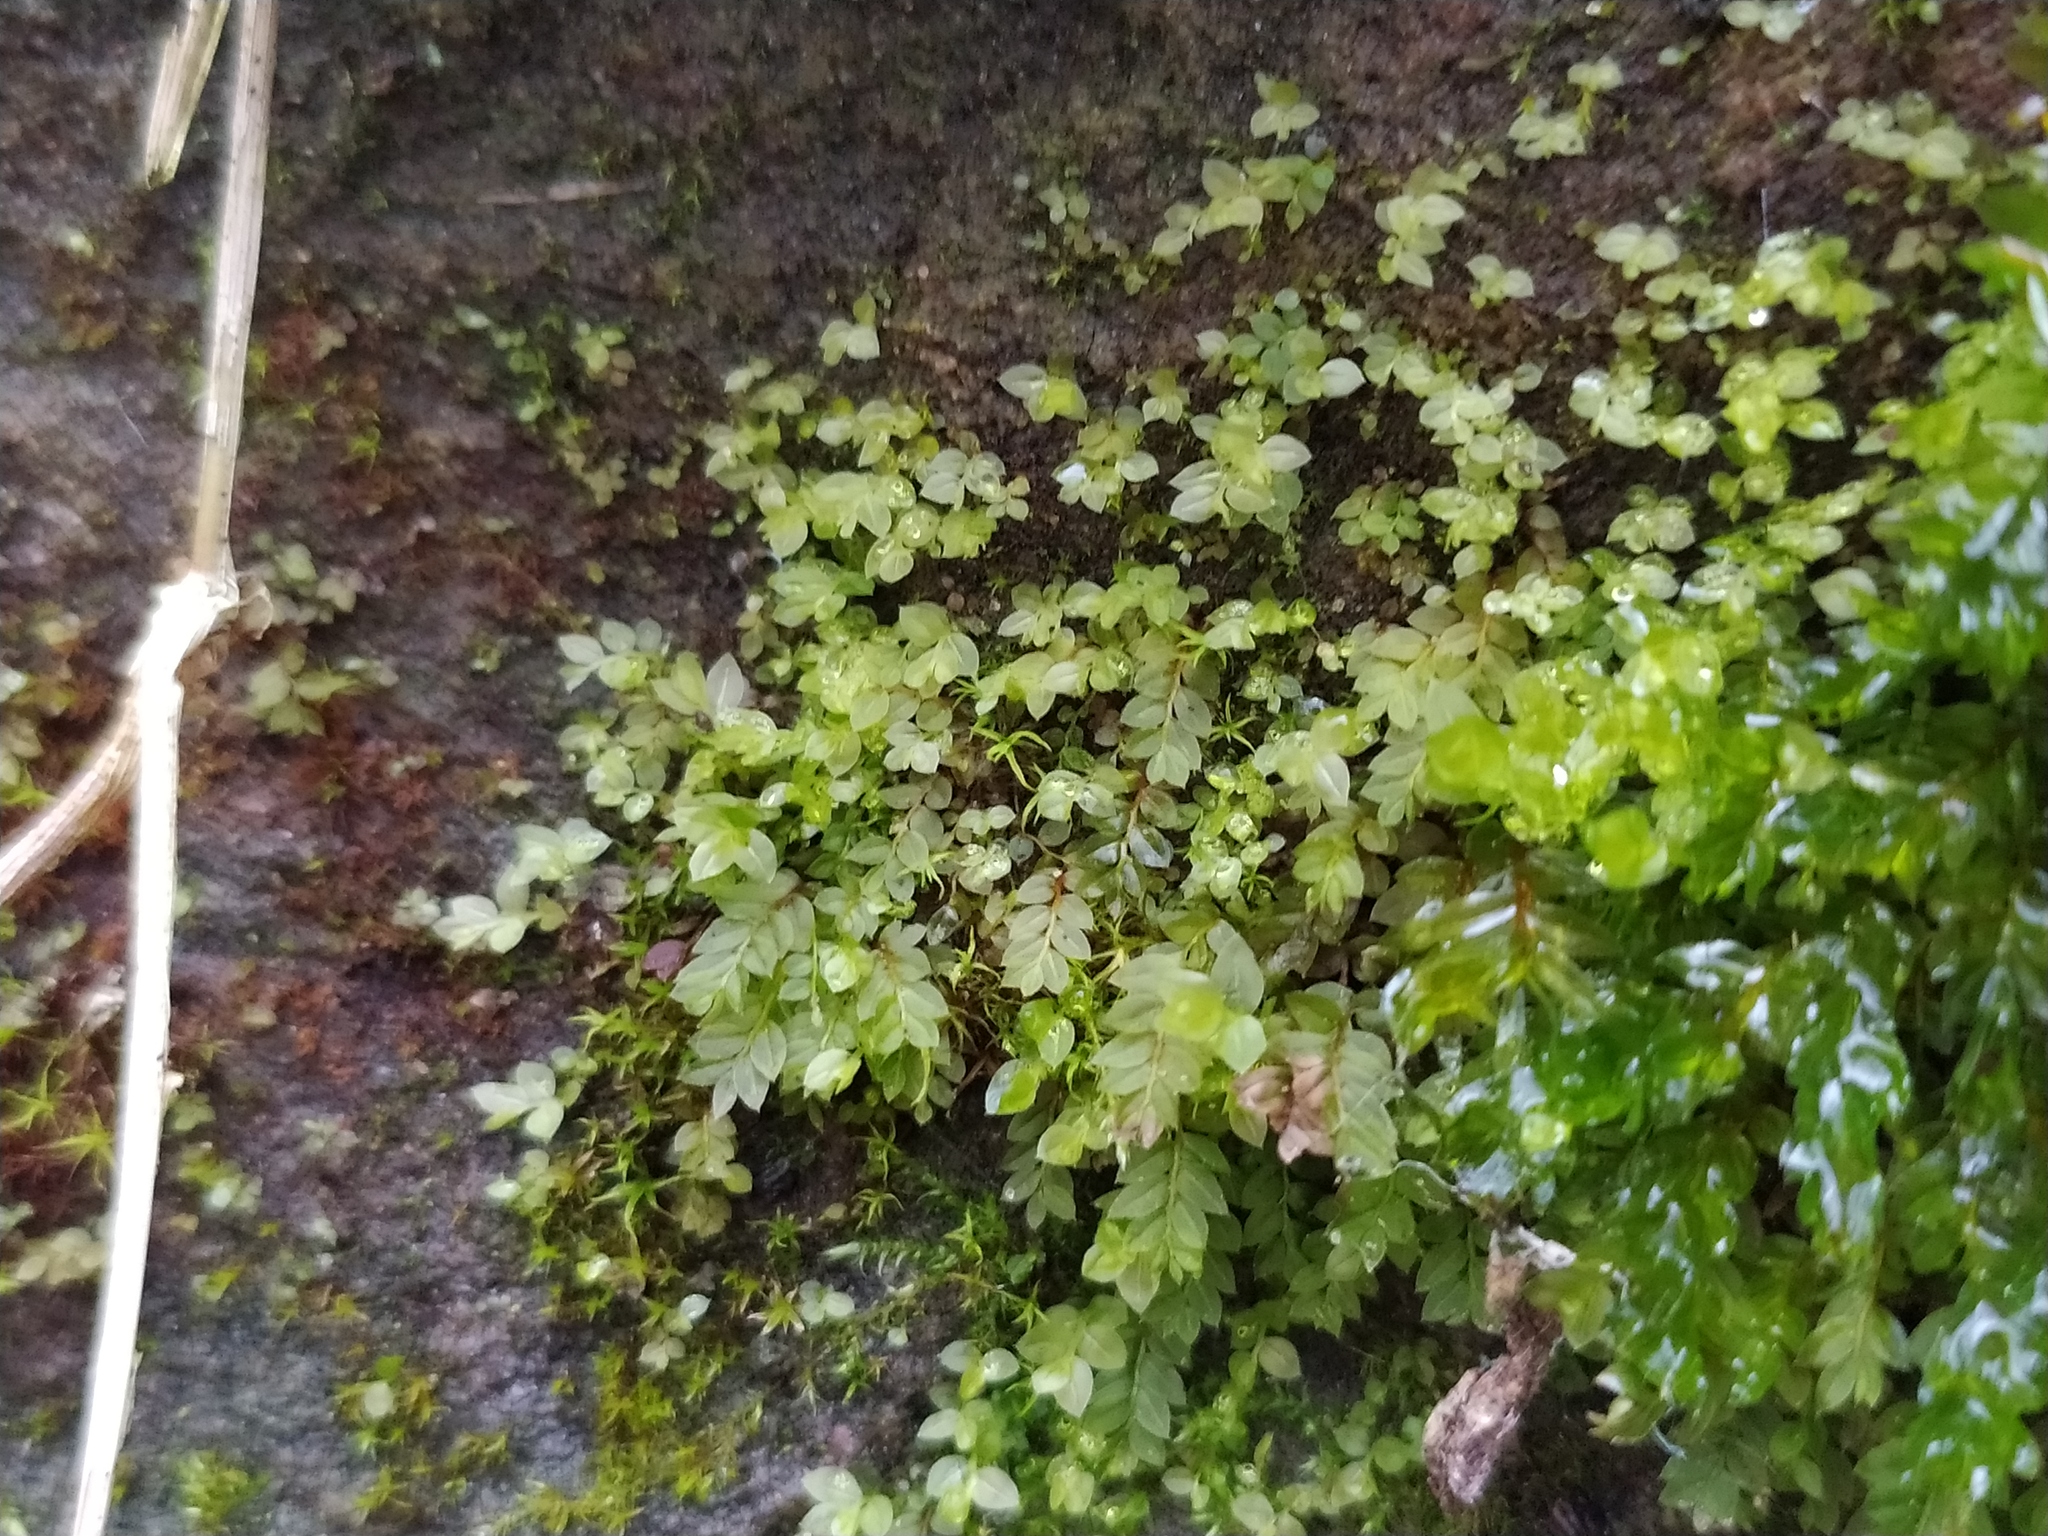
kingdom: Plantae
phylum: Bryophyta
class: Bryopsida
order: Bryales
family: Mniaceae
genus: Mnium
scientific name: Mnium stellare
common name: Star leafy moss
